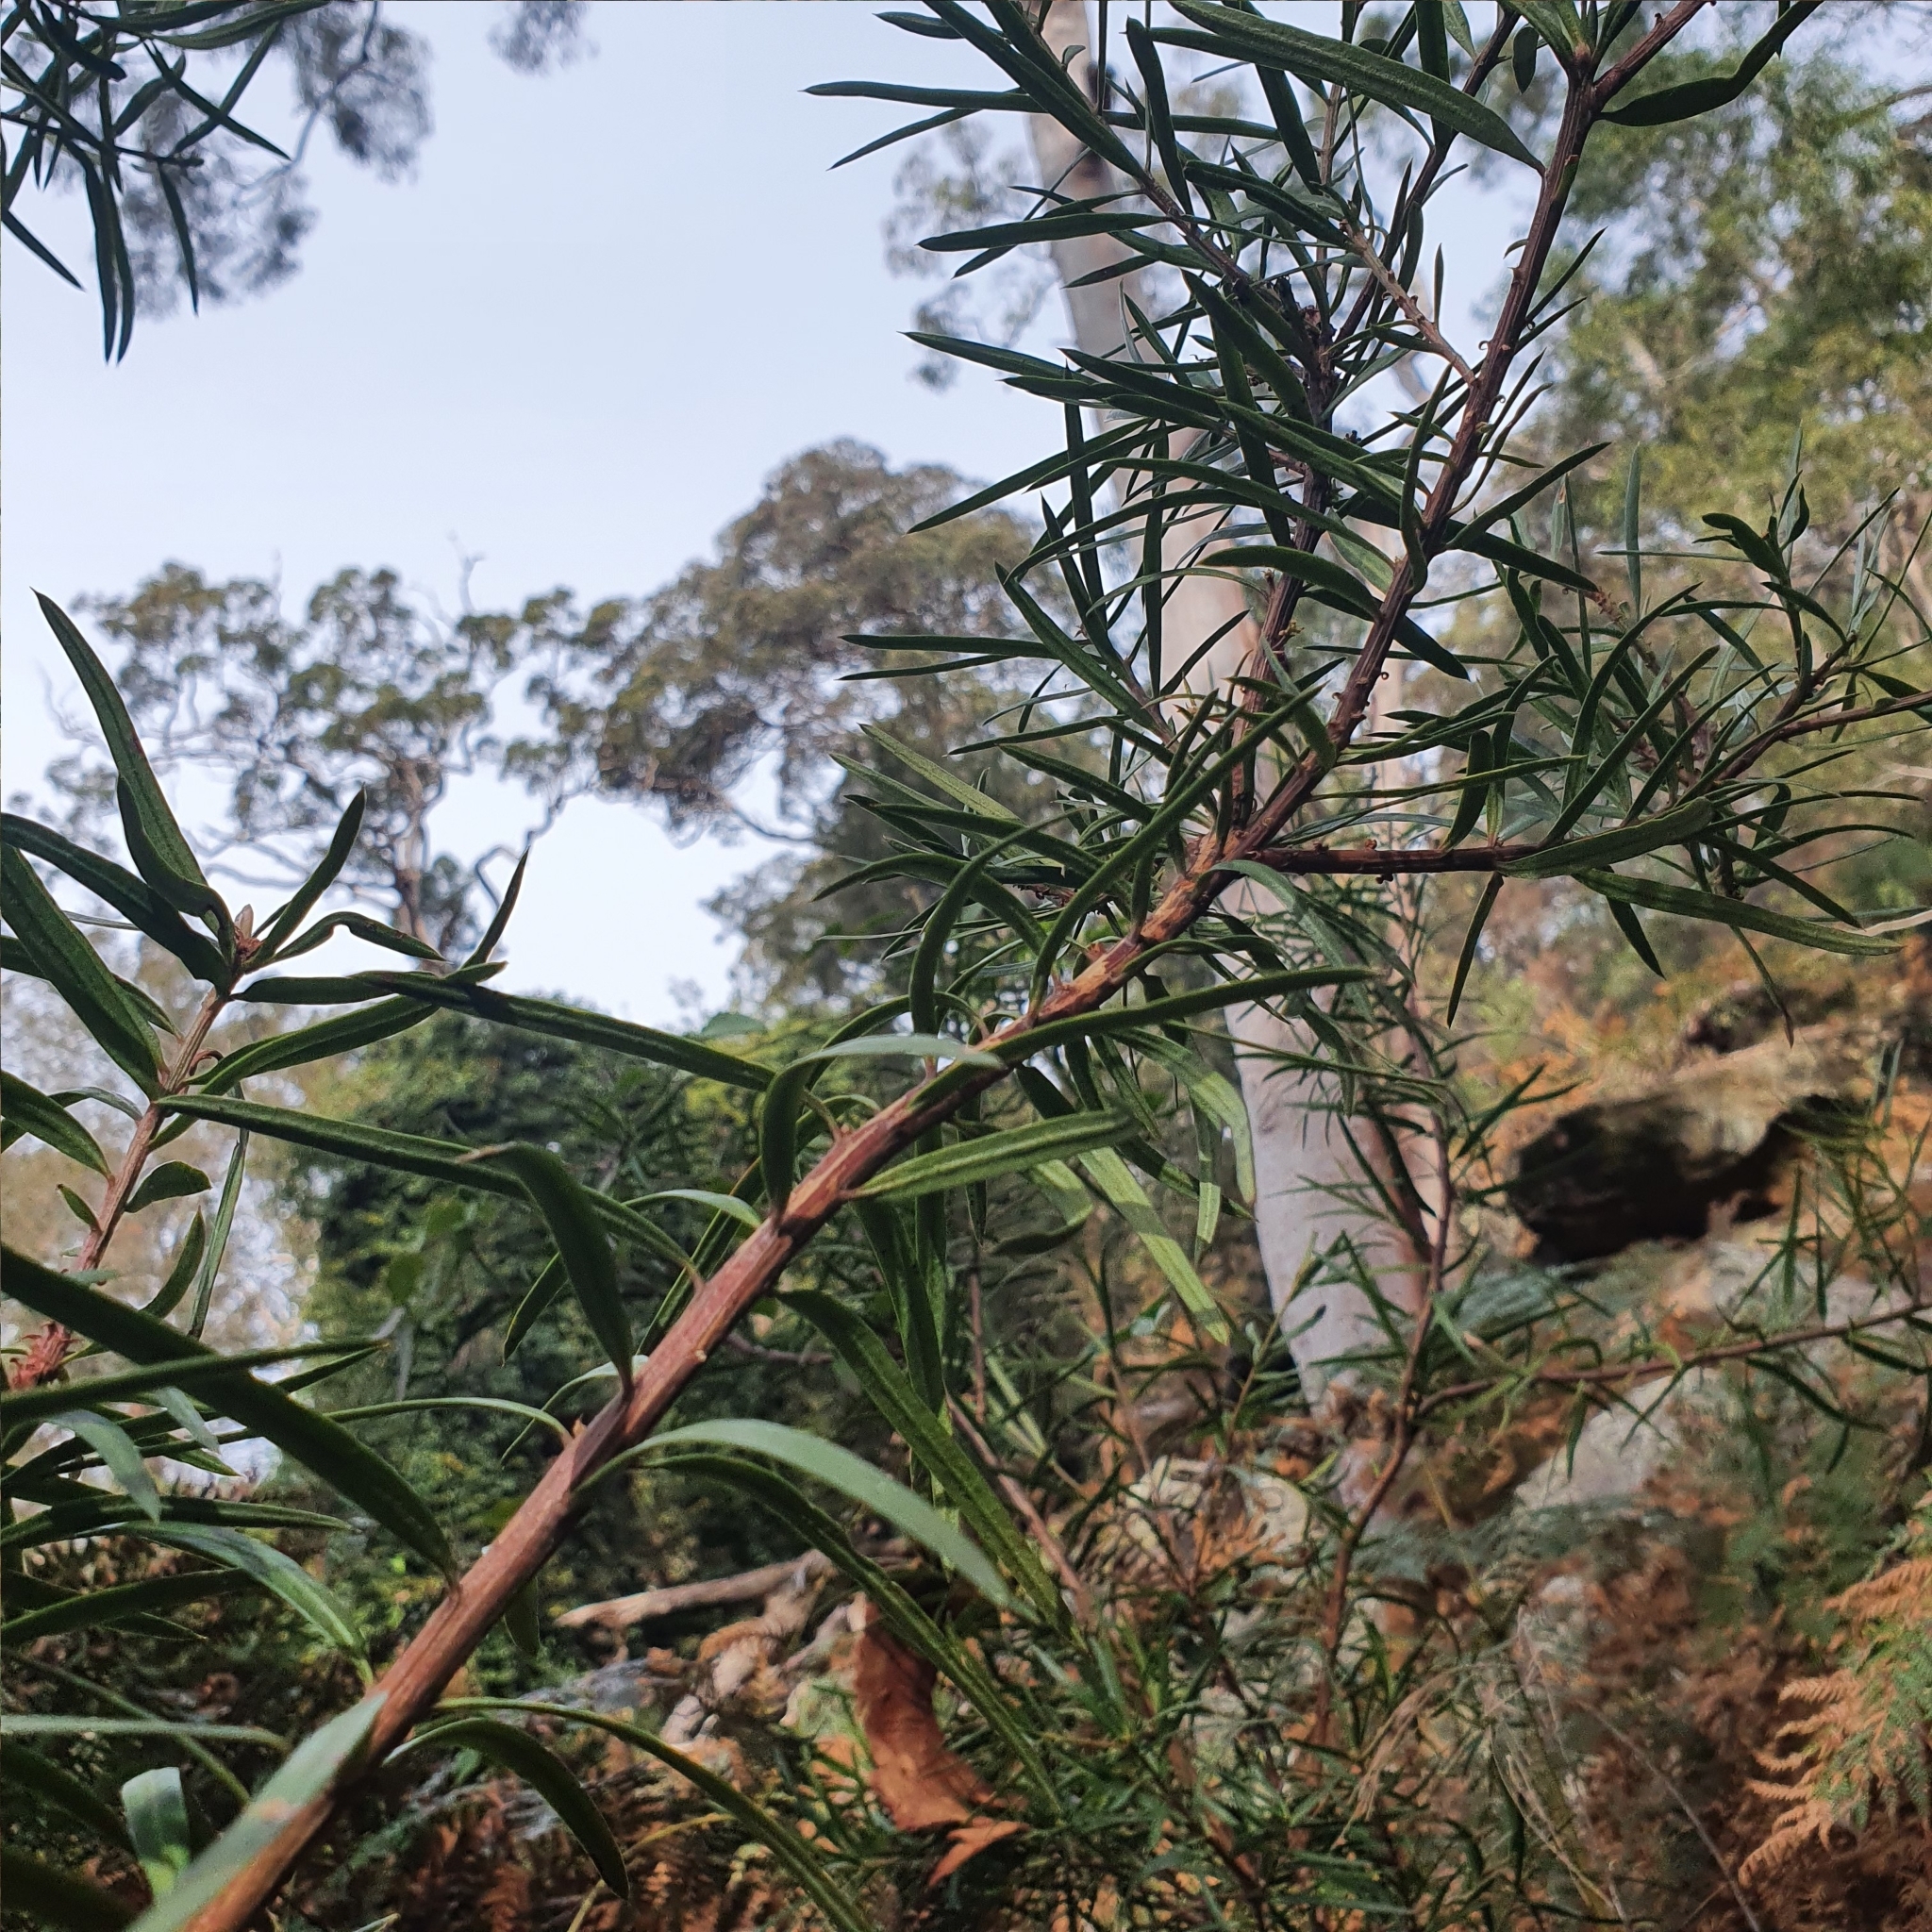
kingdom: Plantae
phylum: Tracheophyta
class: Pinopsida
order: Pinales
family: Podocarpaceae
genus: Podocarpus
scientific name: Podocarpus spinulosus
